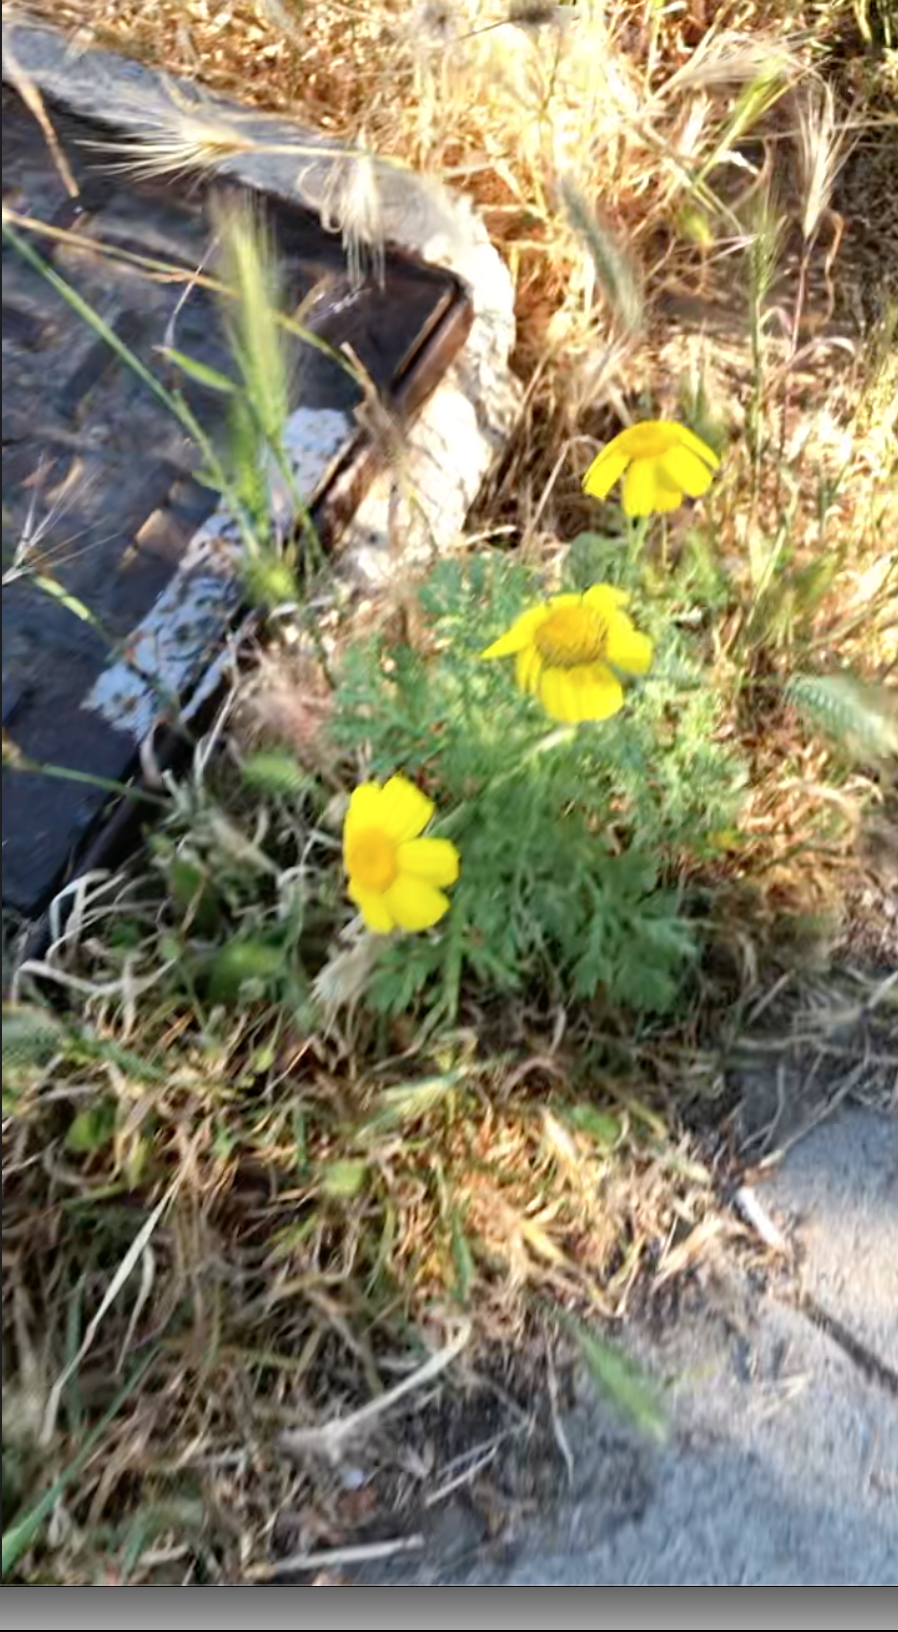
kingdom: Plantae
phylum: Tracheophyta
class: Magnoliopsida
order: Asterales
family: Asteraceae
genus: Glebionis
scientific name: Glebionis coronaria
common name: Crowndaisy
